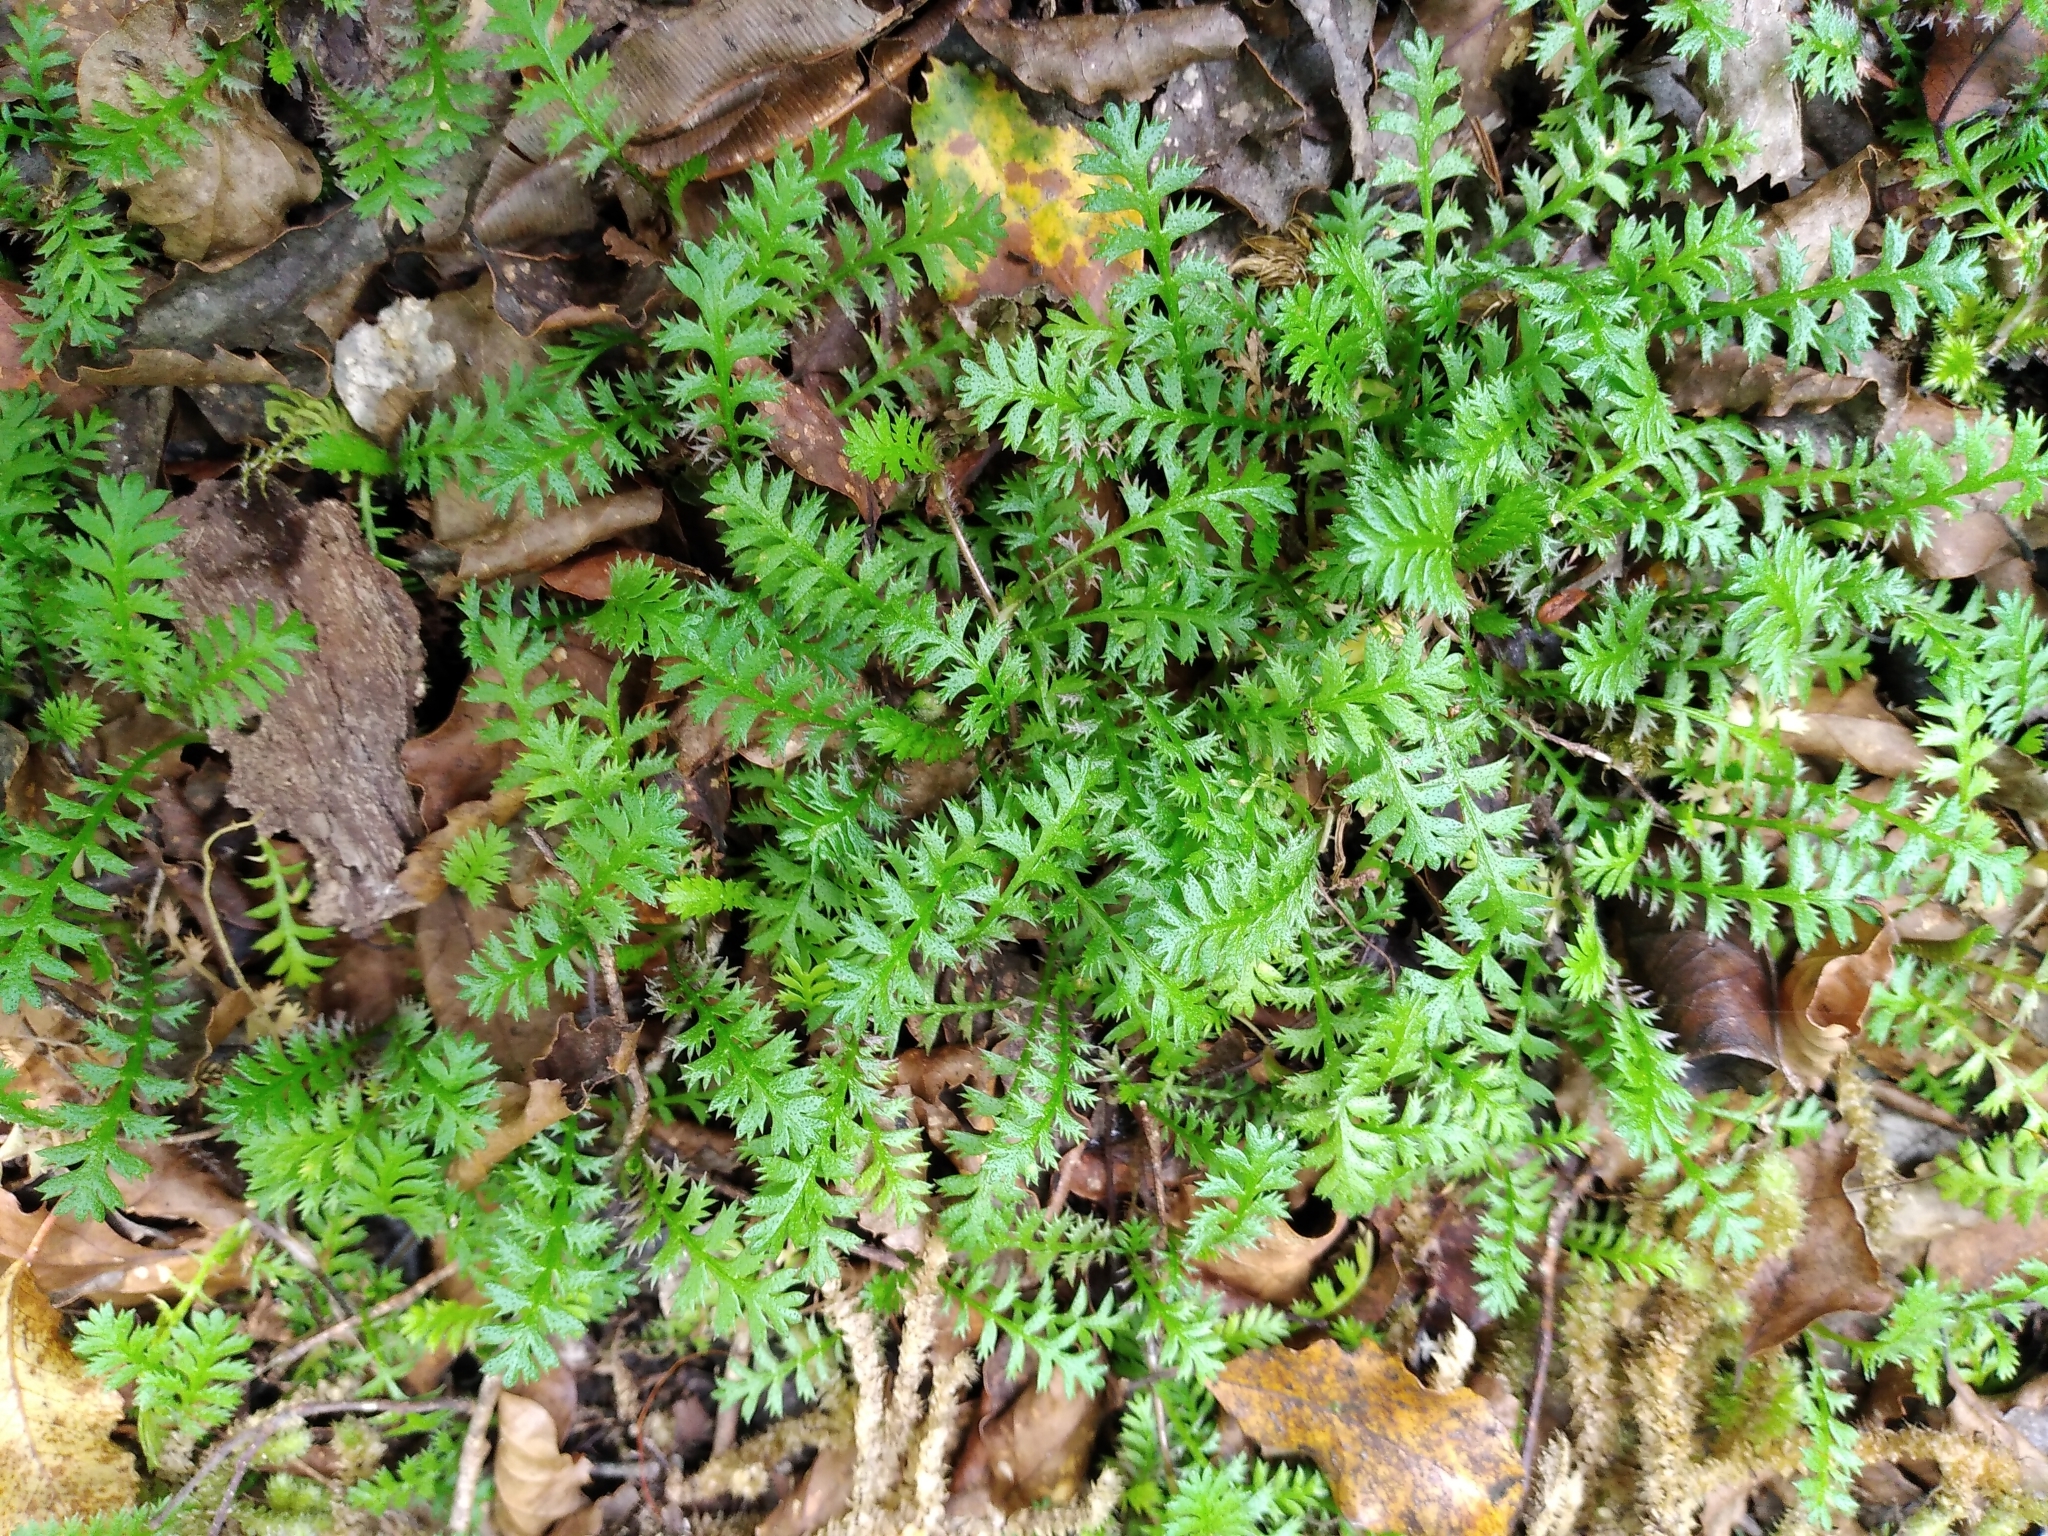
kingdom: Plantae
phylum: Tracheophyta
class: Magnoliopsida
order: Asterales
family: Asteraceae
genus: Leptinella
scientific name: Leptinella squalida
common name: New zealand brass-buttons
